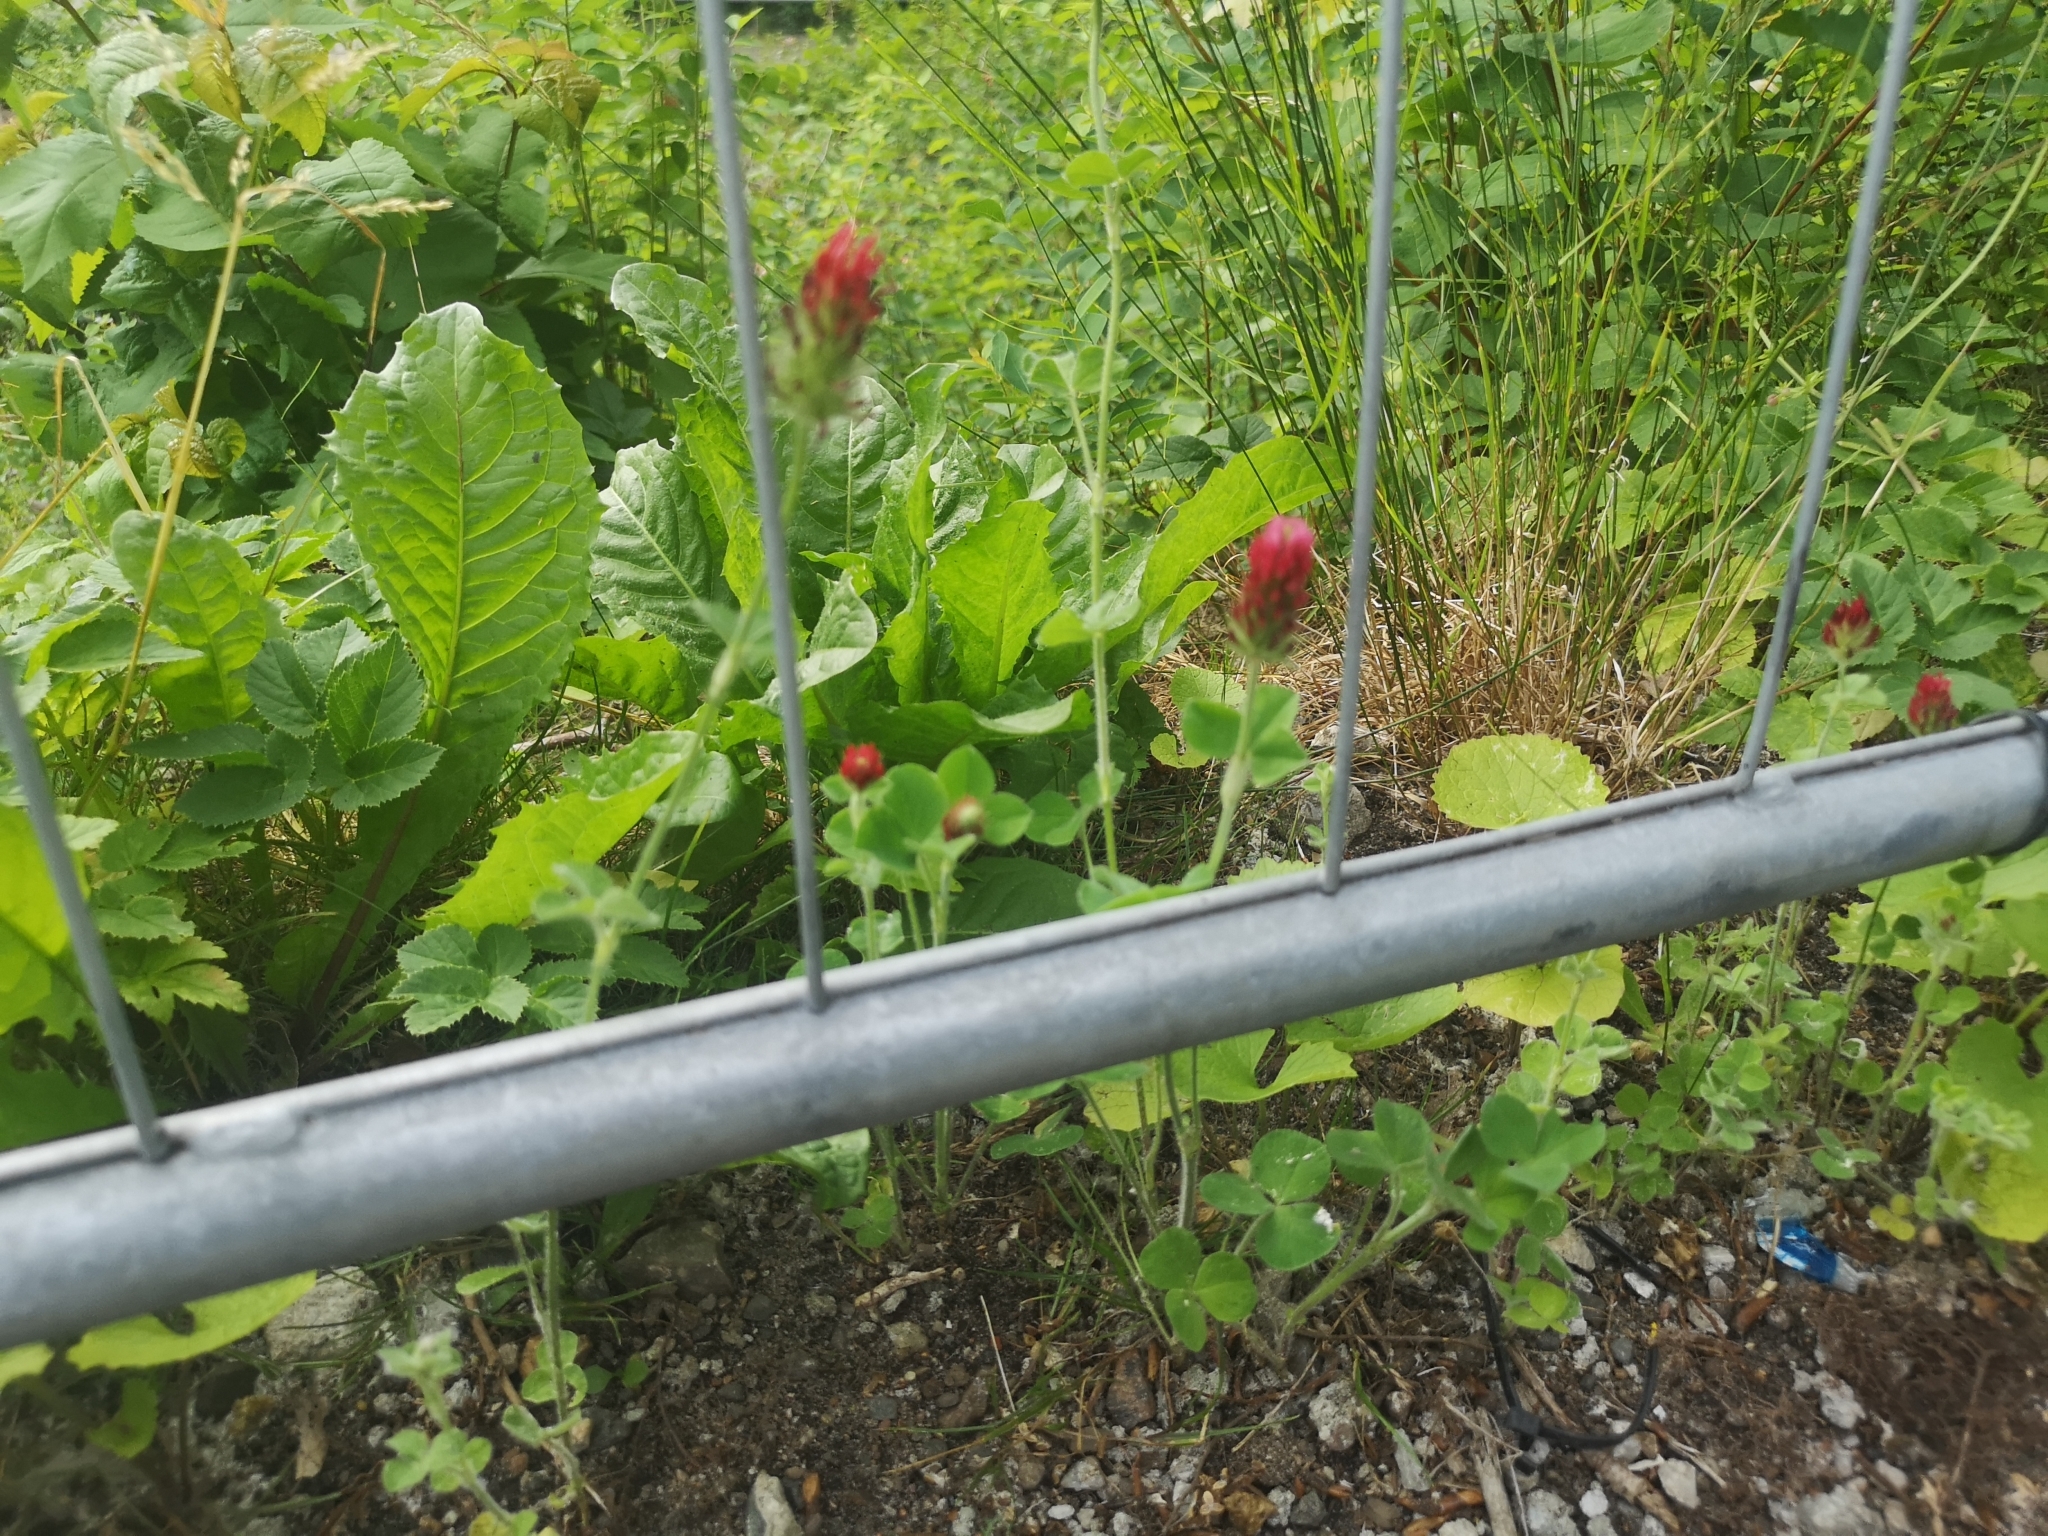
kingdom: Plantae
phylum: Tracheophyta
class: Magnoliopsida
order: Fabales
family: Fabaceae
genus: Trifolium
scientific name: Trifolium incarnatum
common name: Crimson clover
